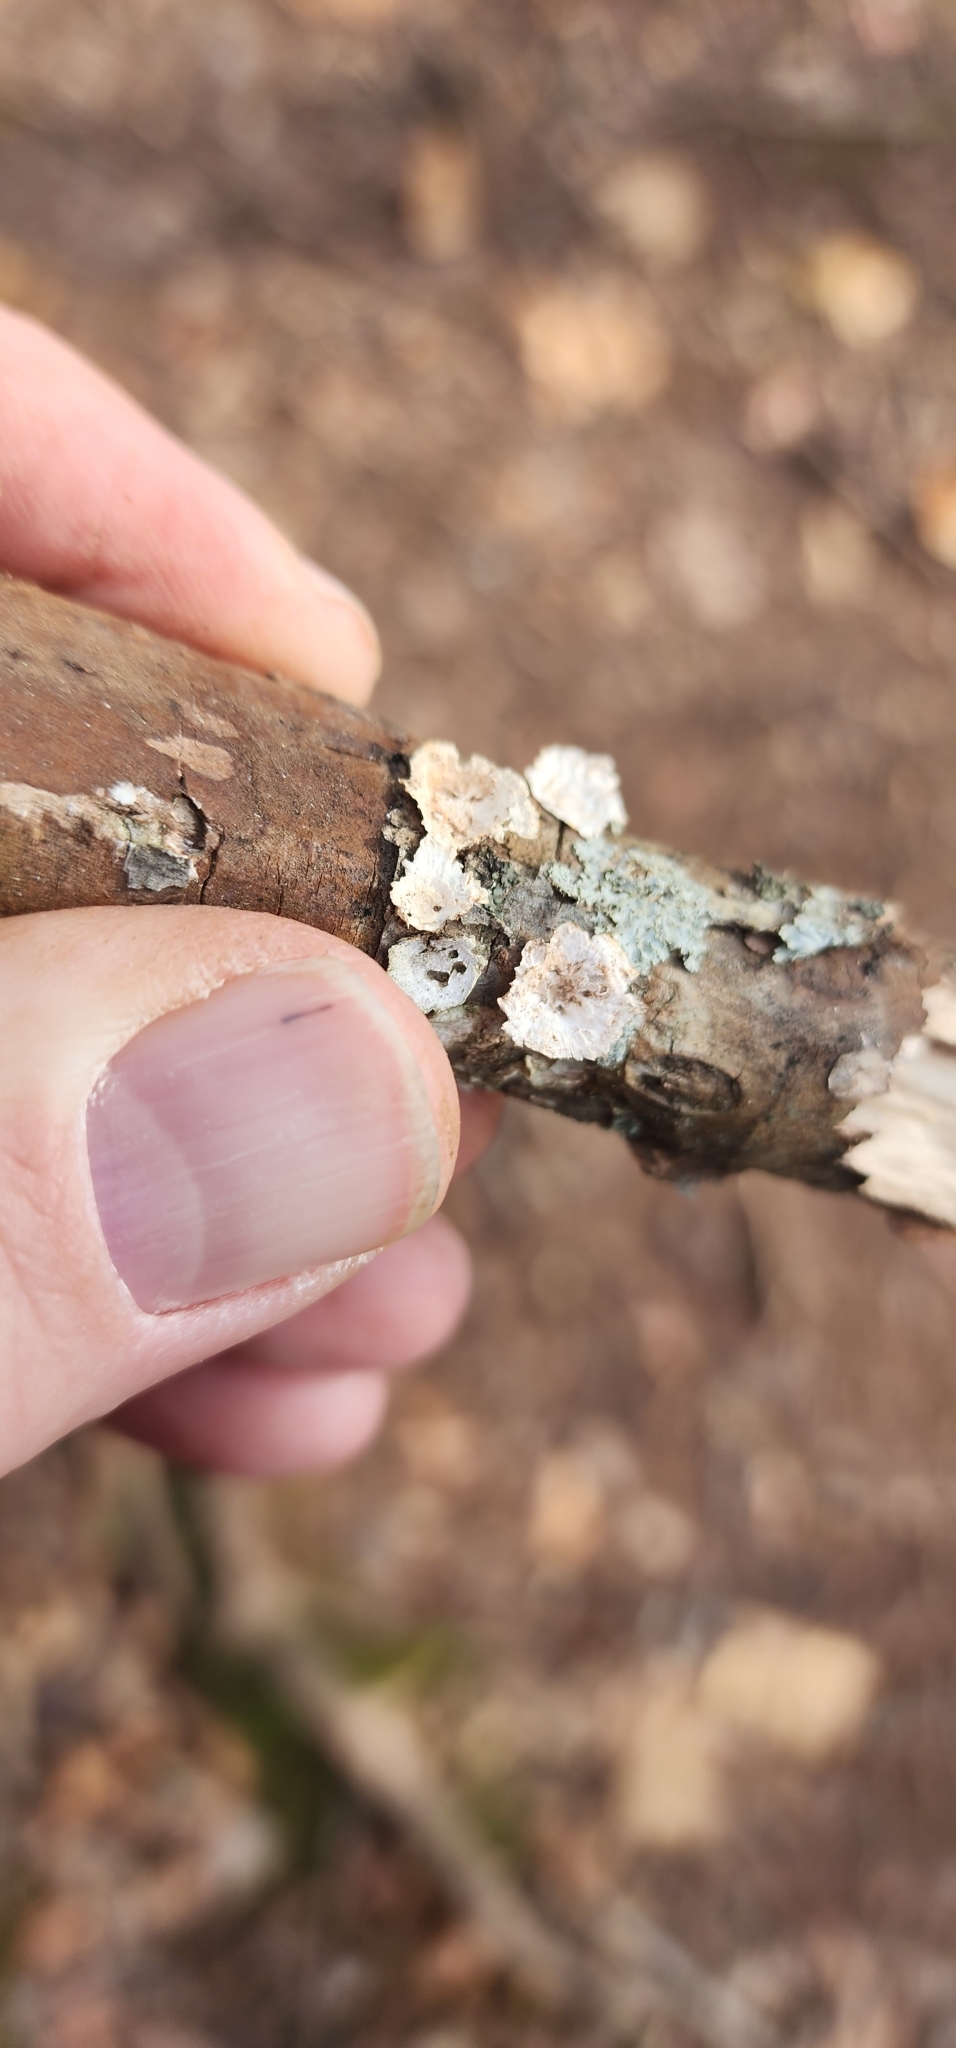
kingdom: Fungi
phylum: Basidiomycota
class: Agaricomycetes
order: Polyporales
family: Polyporaceae
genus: Poronidulus
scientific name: Poronidulus conchifer
